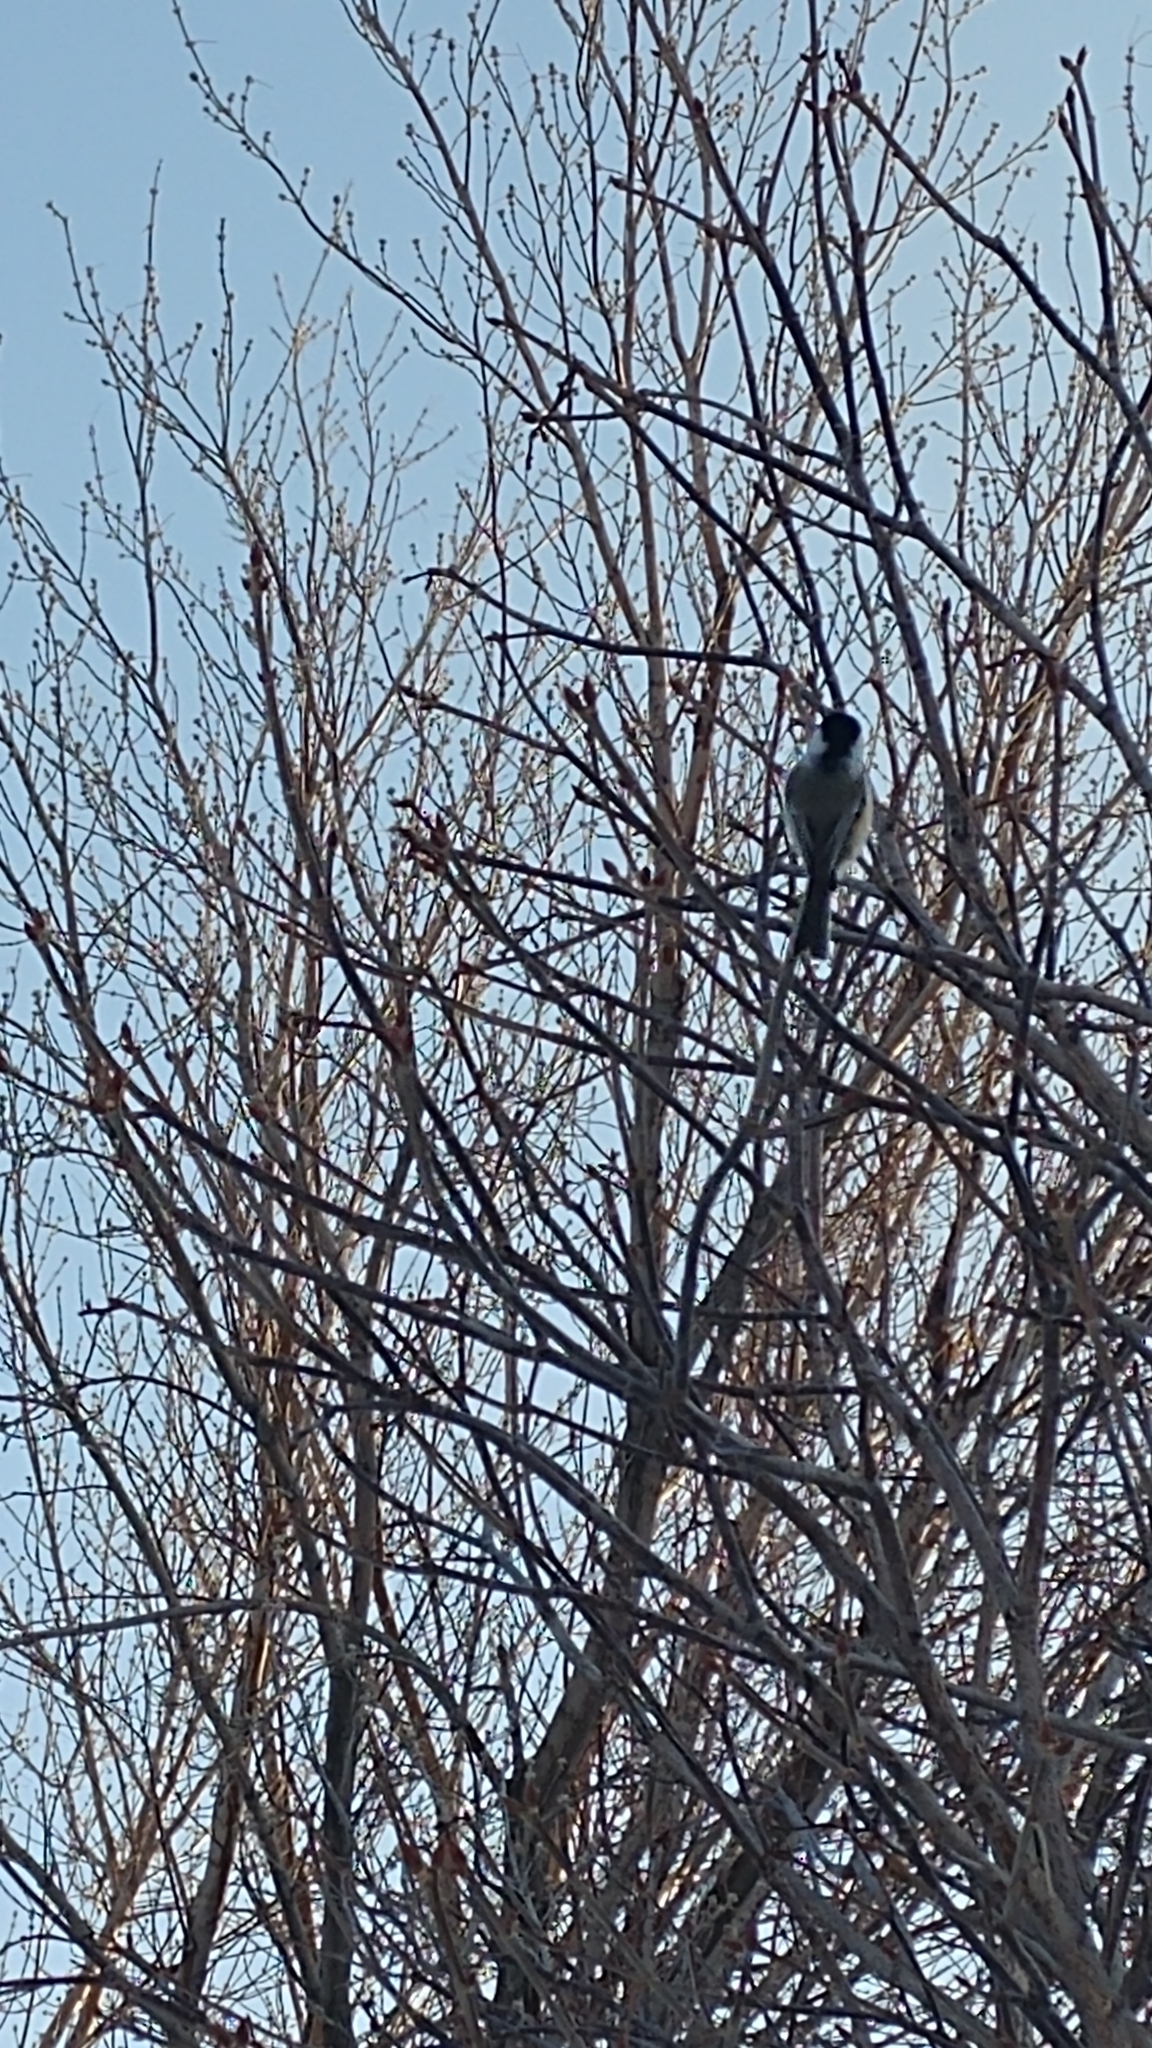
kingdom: Animalia
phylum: Chordata
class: Aves
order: Passeriformes
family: Paridae
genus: Poecile
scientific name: Poecile atricapillus
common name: Black-capped chickadee
